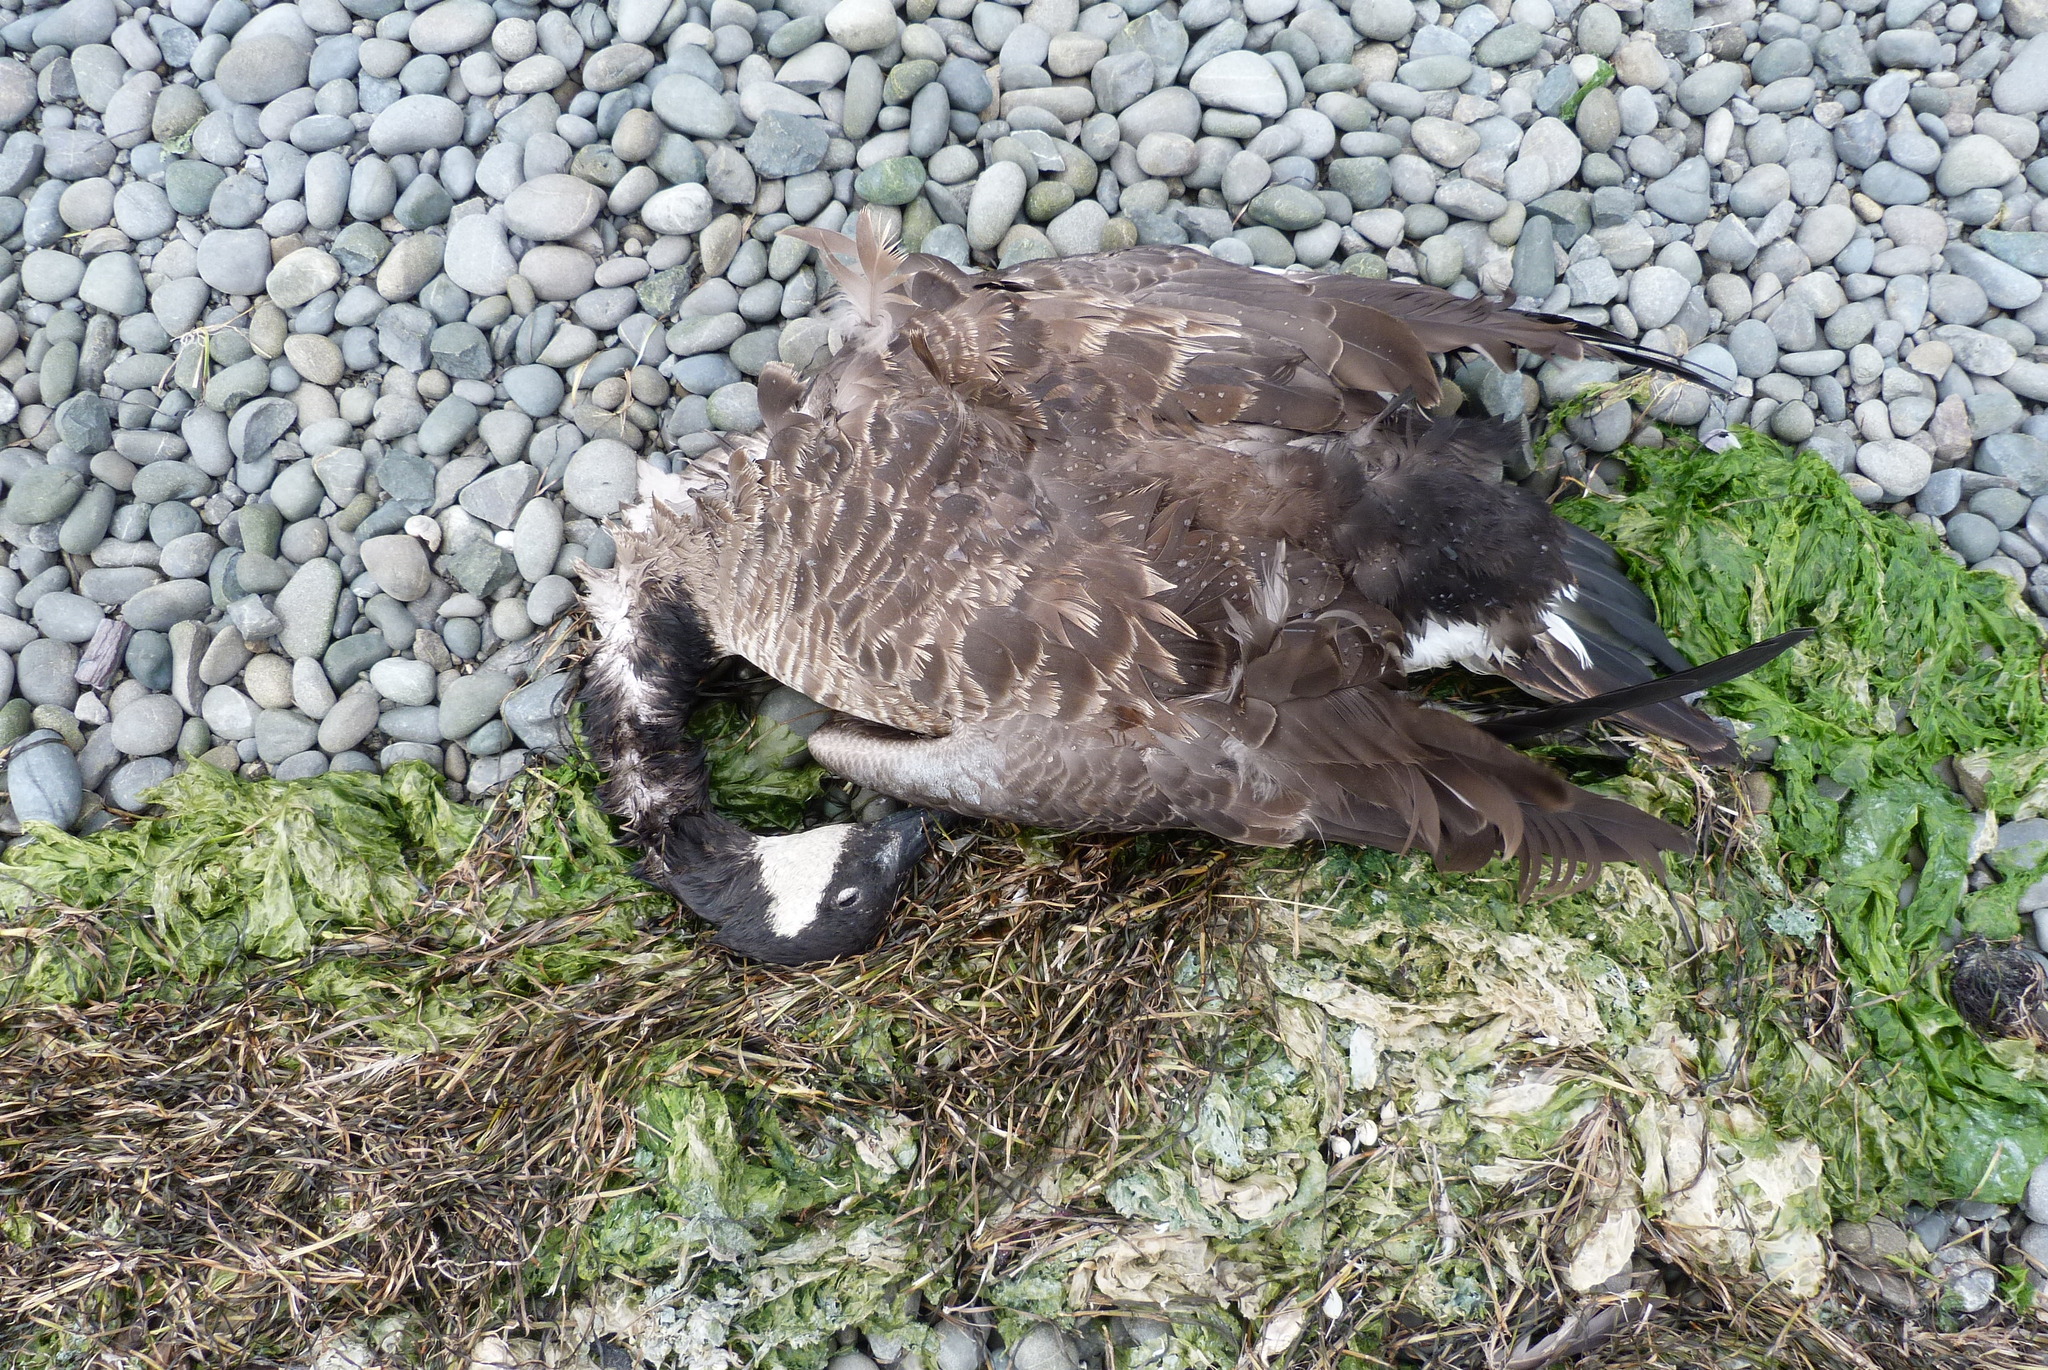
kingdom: Animalia
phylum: Chordata
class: Aves
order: Anseriformes
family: Anatidae
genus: Branta
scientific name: Branta canadensis
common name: Canada goose
